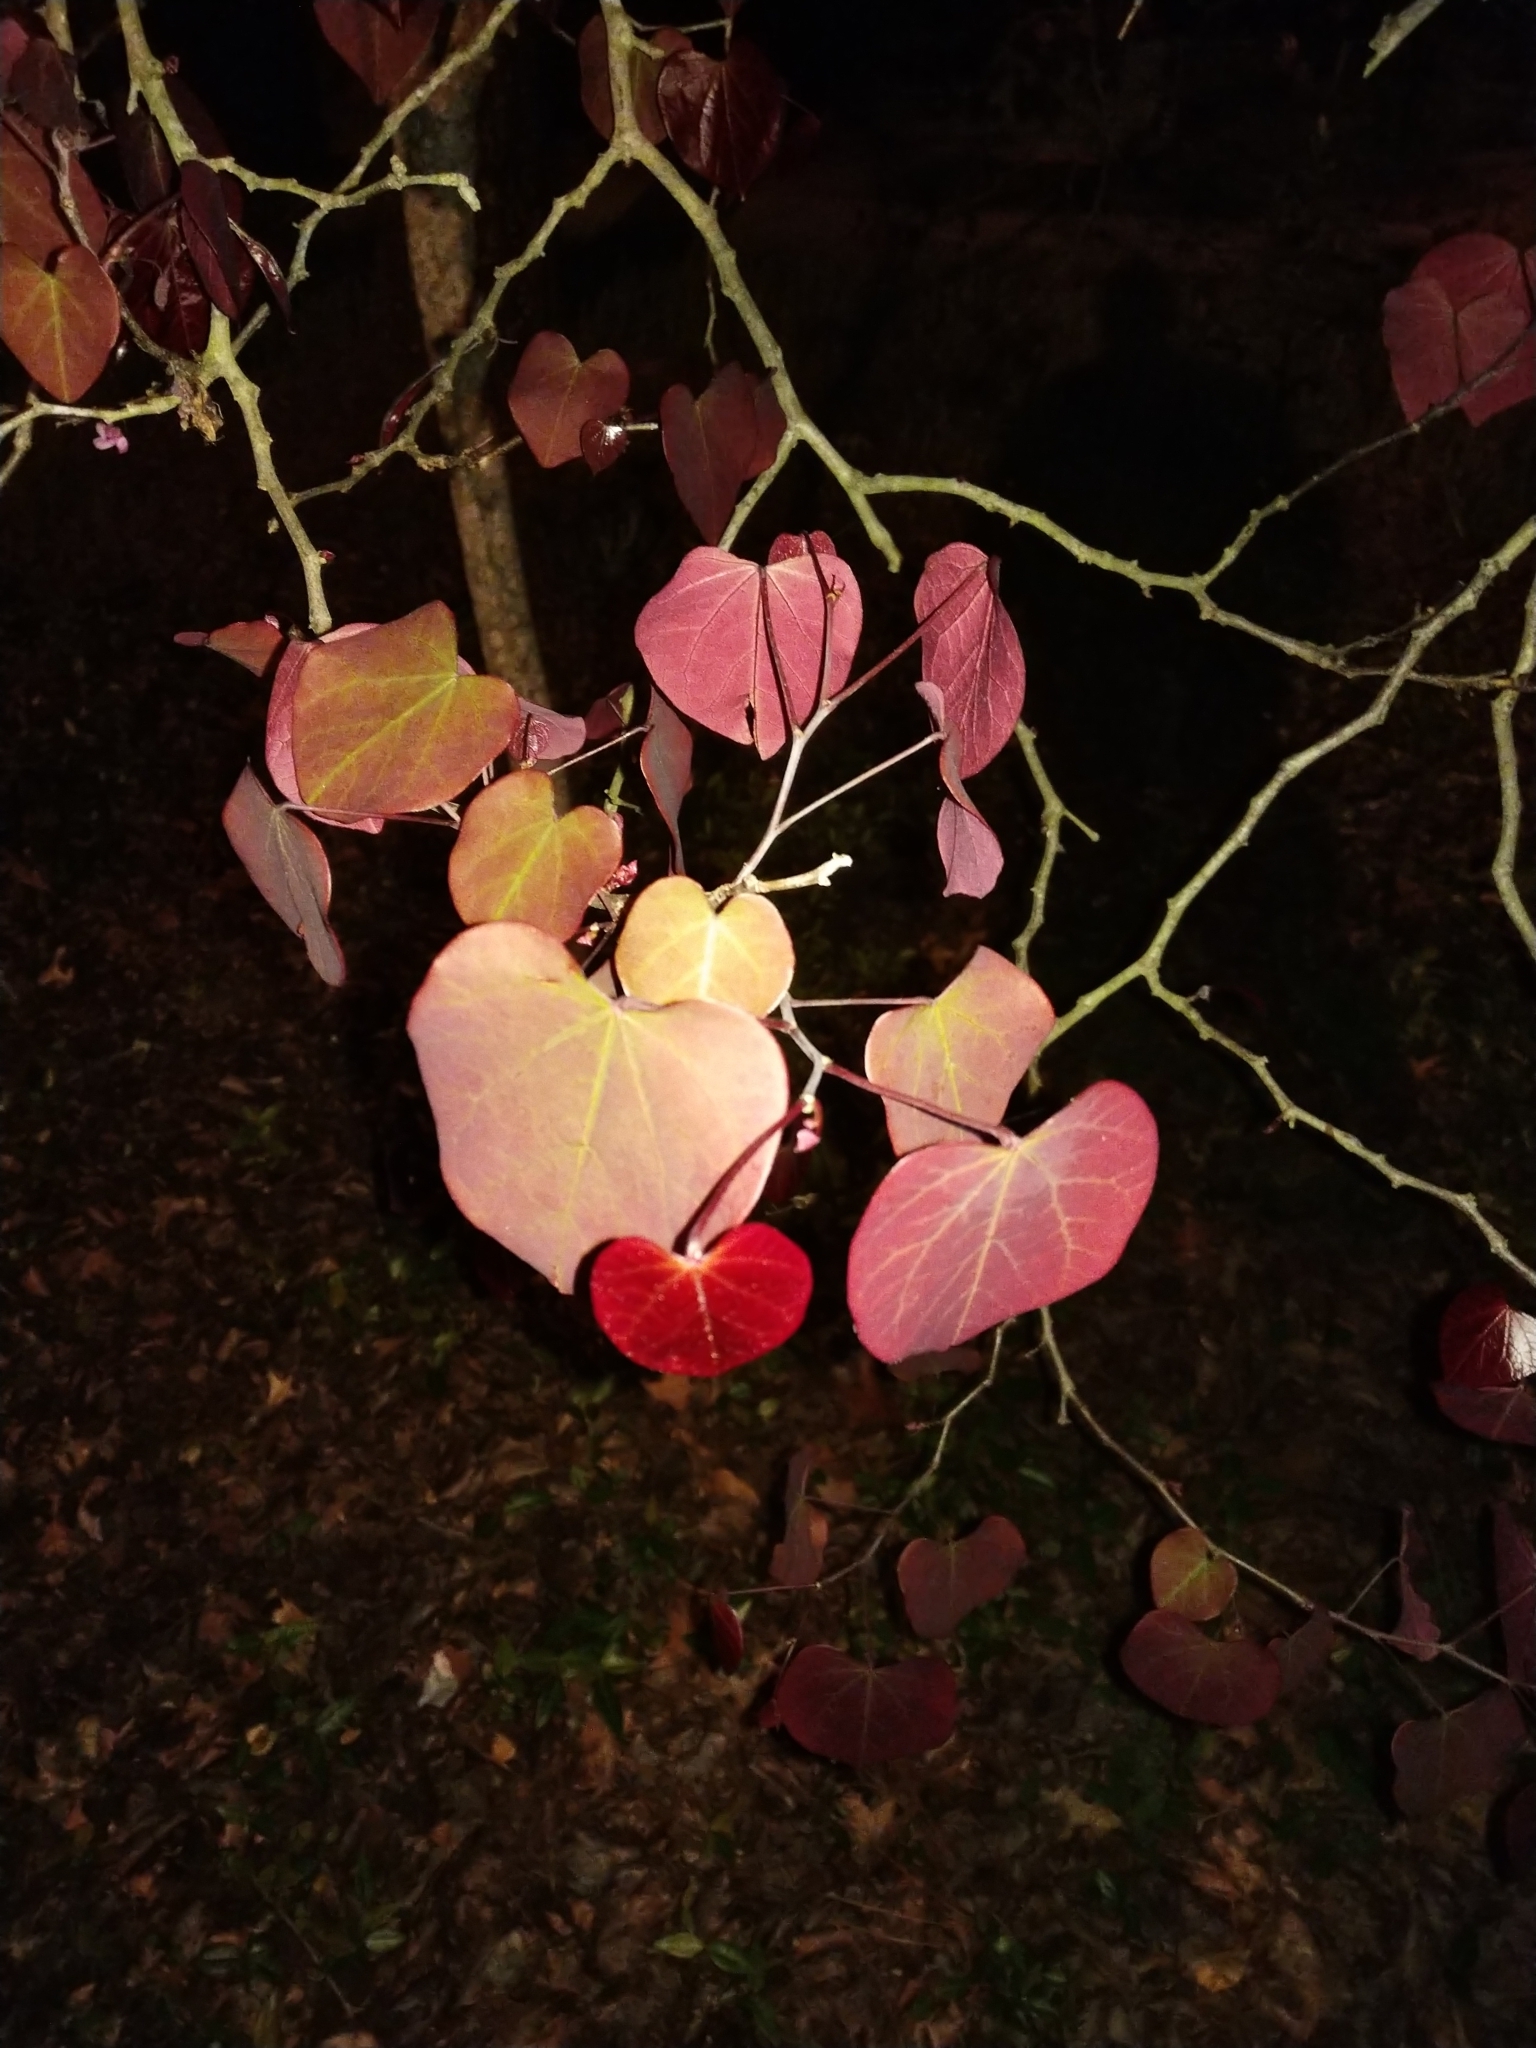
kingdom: Plantae
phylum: Tracheophyta
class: Magnoliopsida
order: Fabales
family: Fabaceae
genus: Cercis
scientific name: Cercis canadensis
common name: Eastern redbud
